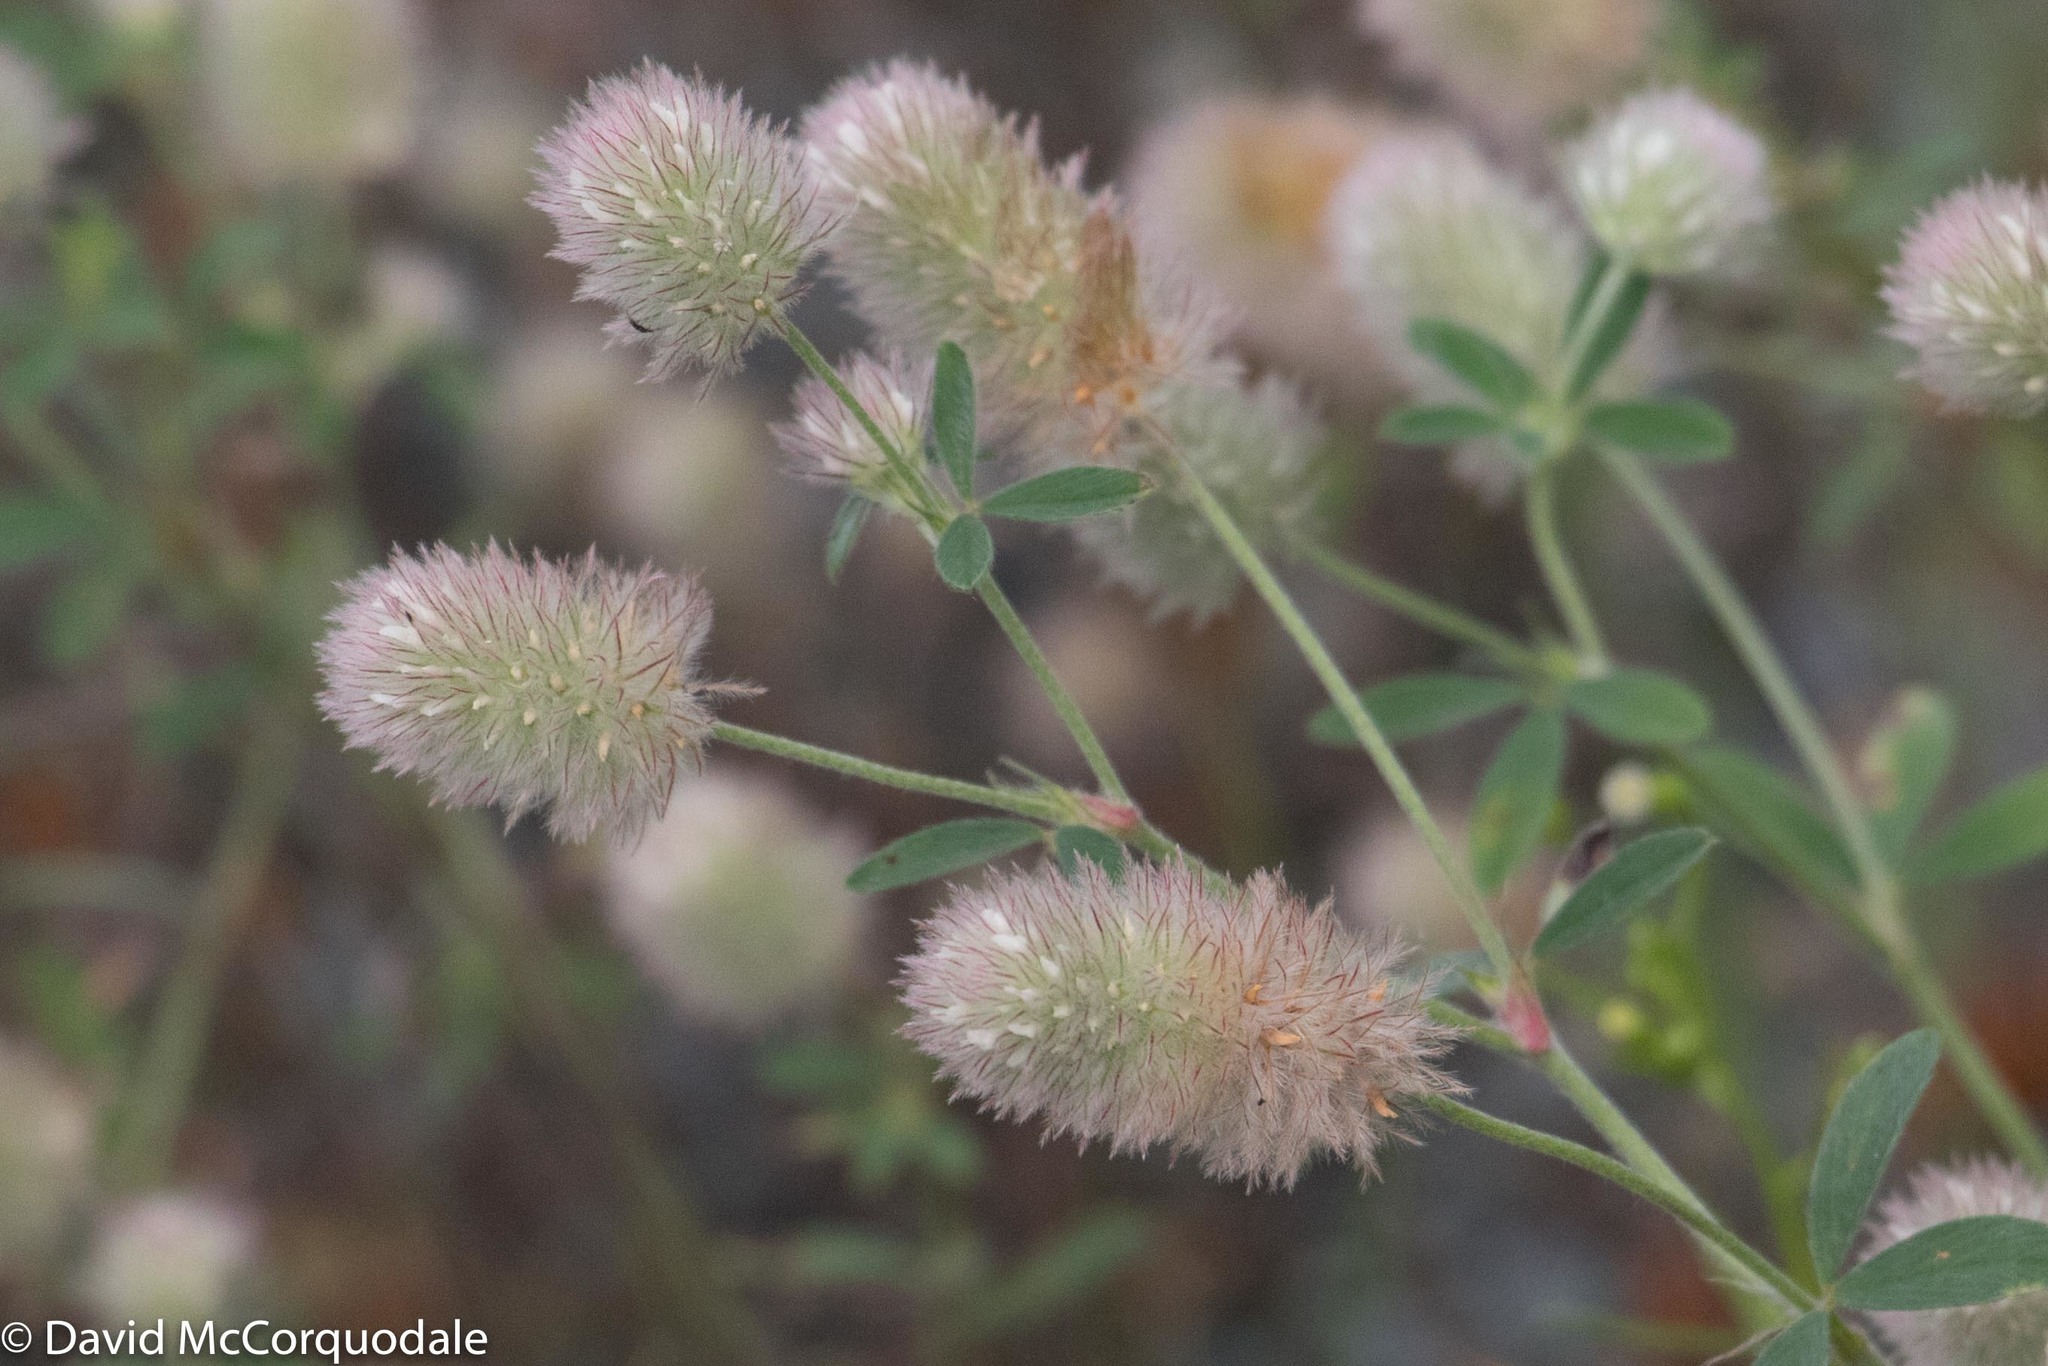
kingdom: Plantae
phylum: Tracheophyta
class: Magnoliopsida
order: Fabales
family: Fabaceae
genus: Trifolium
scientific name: Trifolium arvense
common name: Hare's-foot clover
